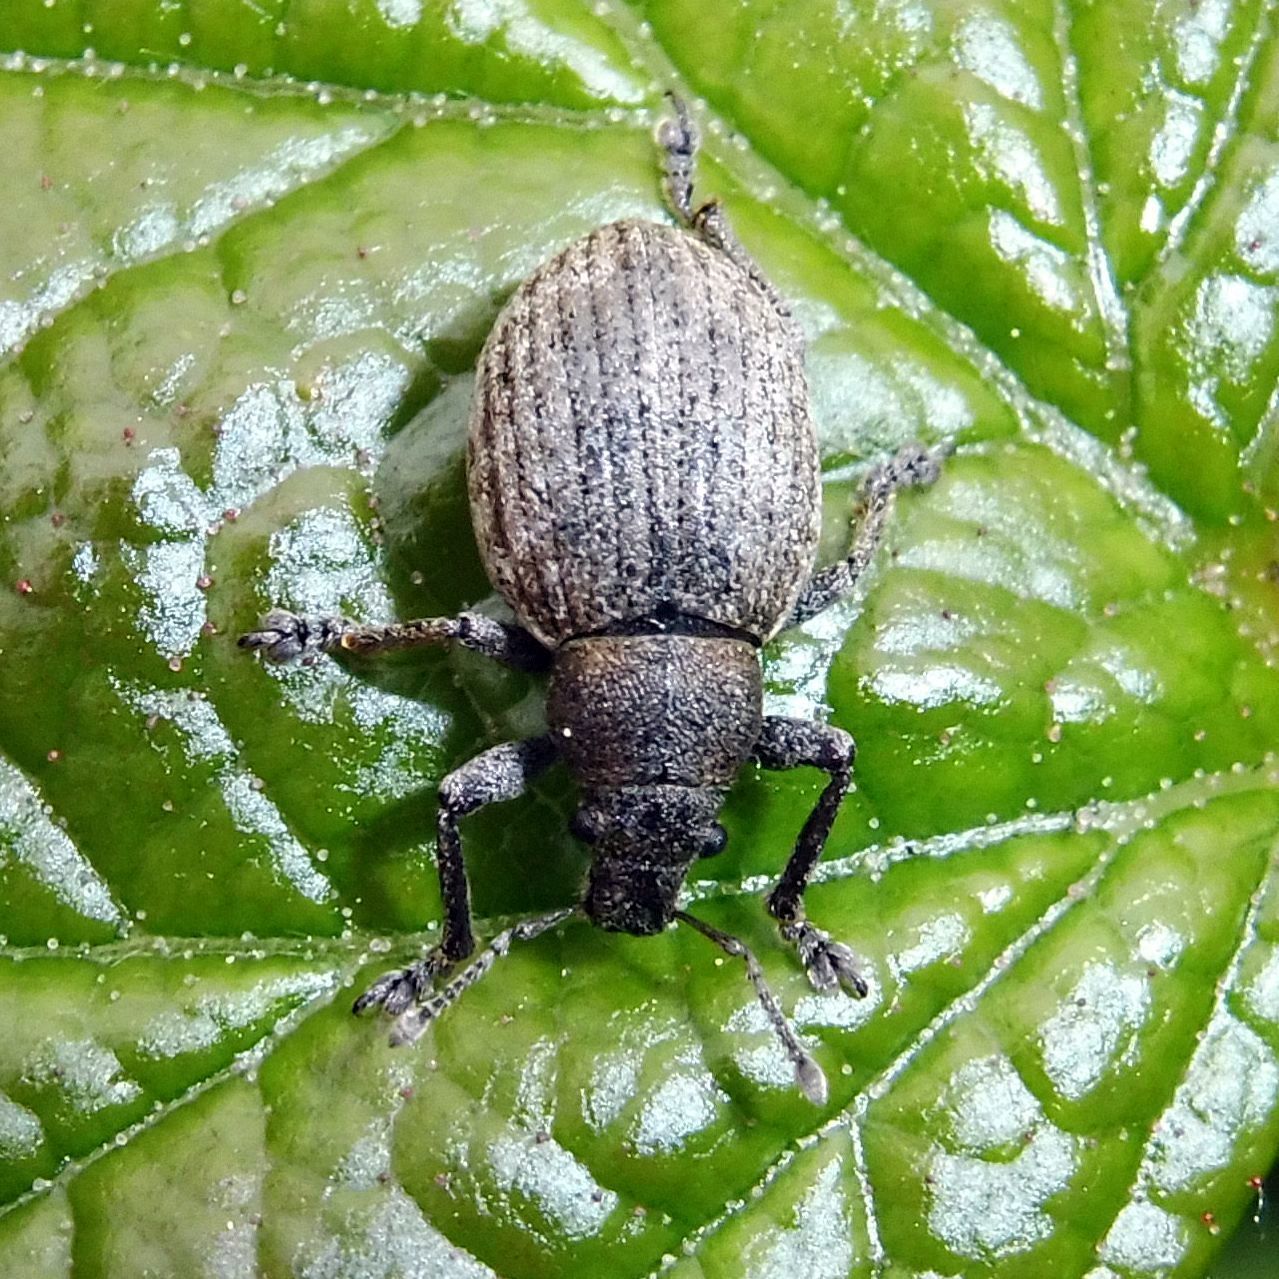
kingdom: Animalia
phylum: Arthropoda
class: Insecta
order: Coleoptera
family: Curculionidae
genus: Attactagenus
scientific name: Attactagenus plumbeus
